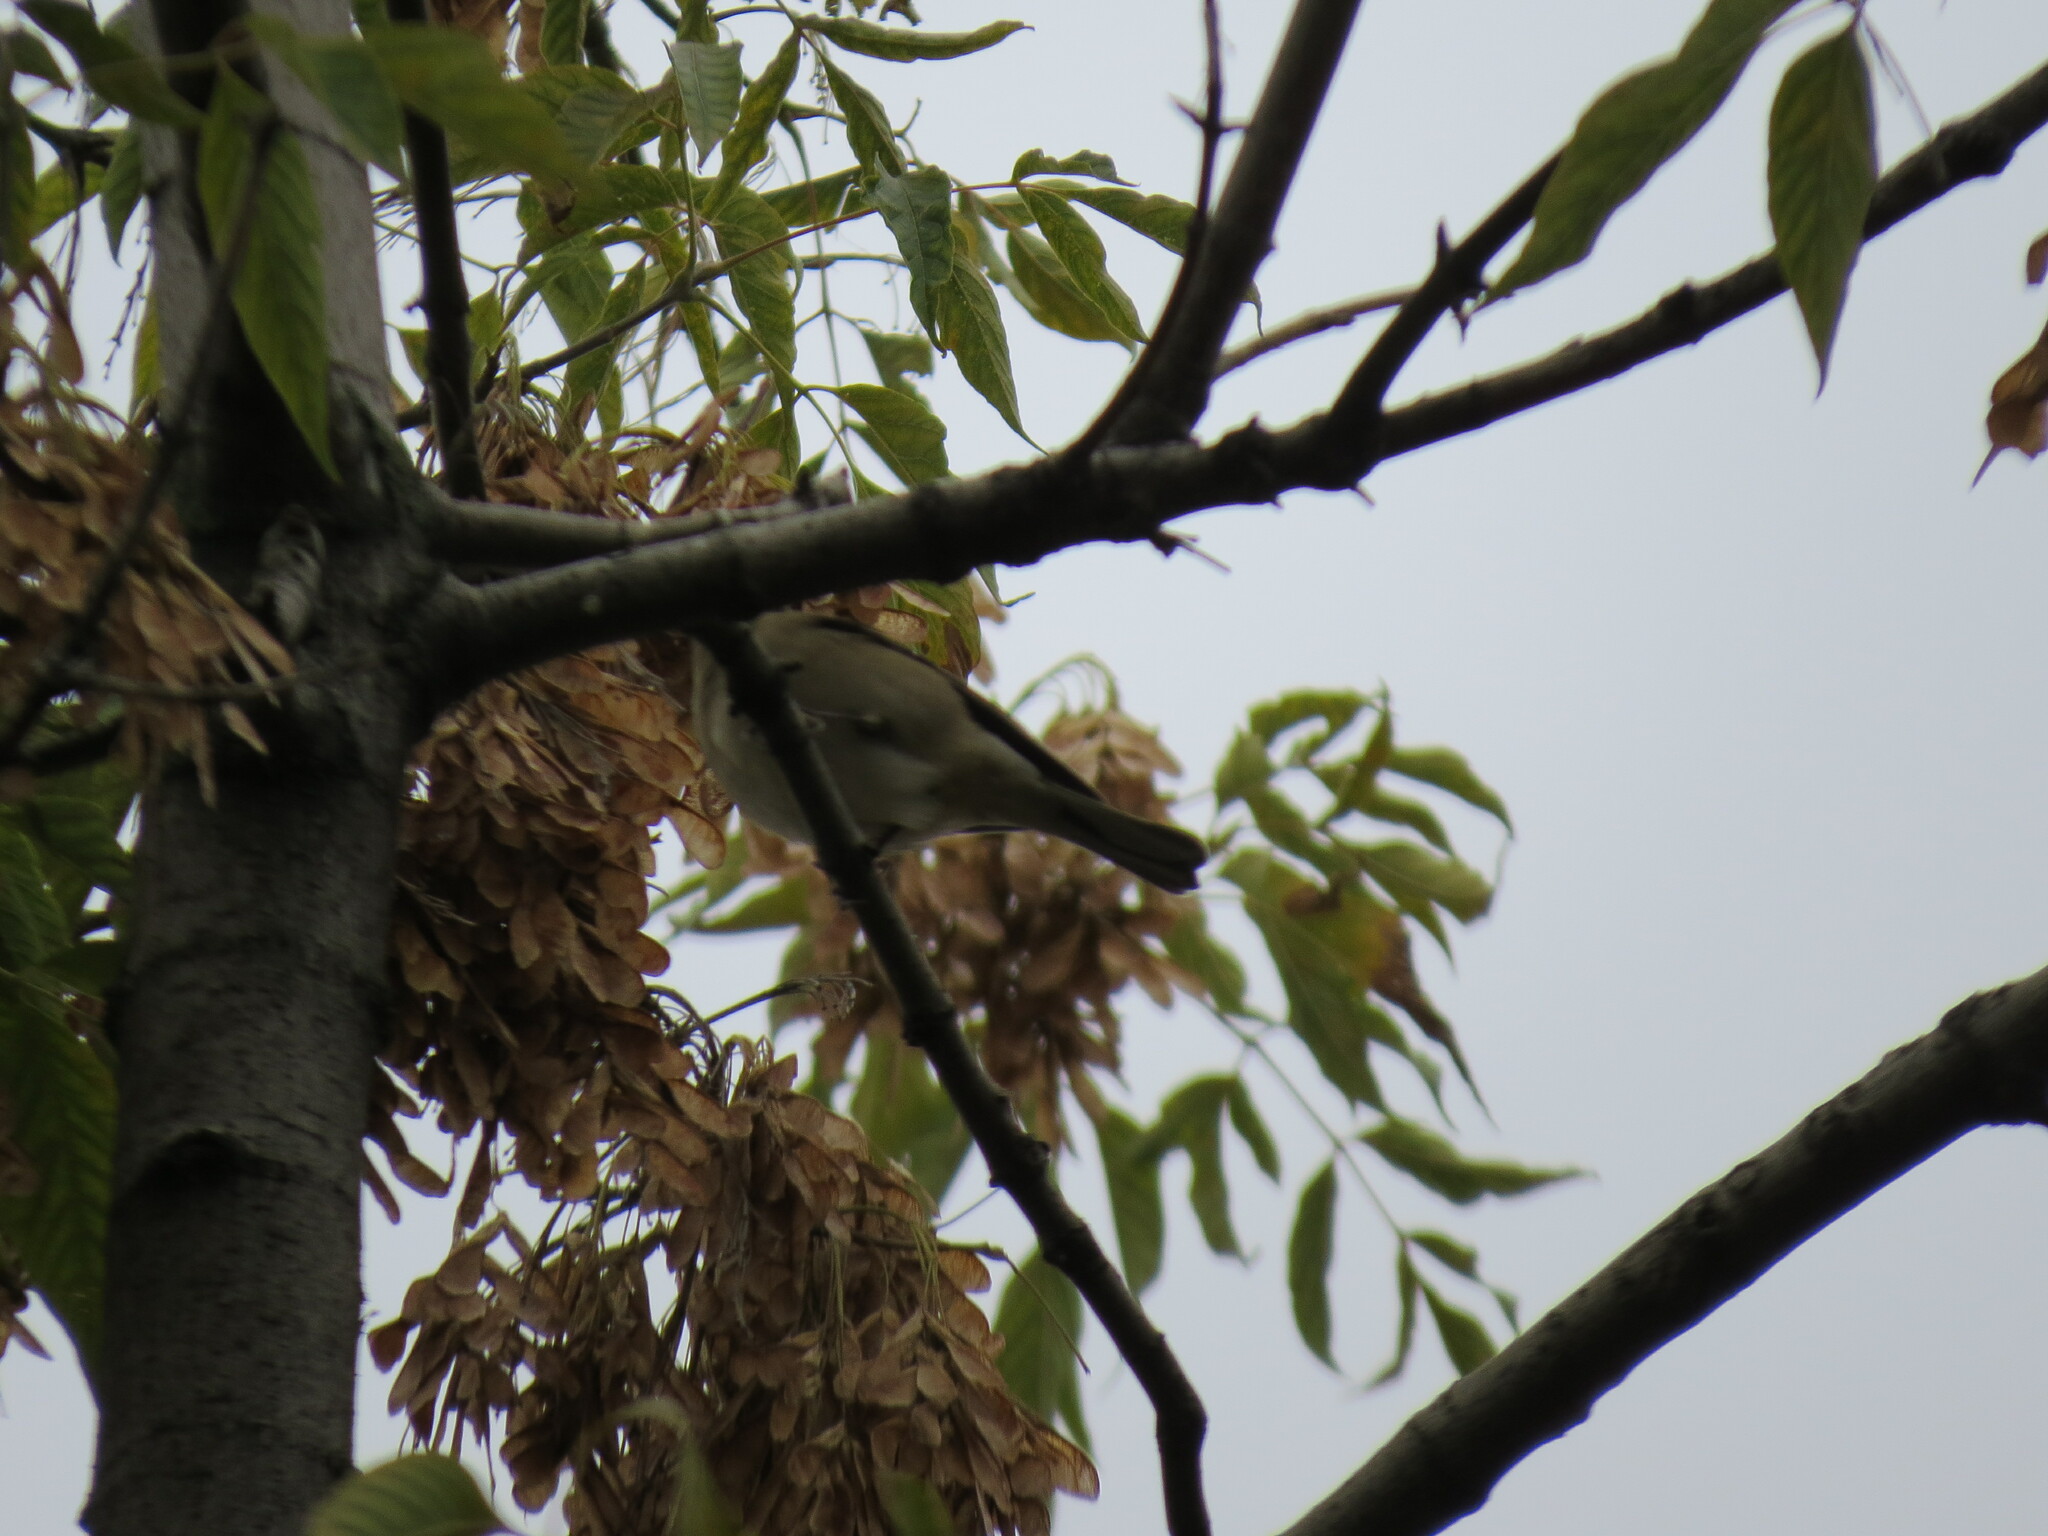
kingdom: Animalia
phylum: Chordata
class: Aves
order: Passeriformes
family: Fringillidae
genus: Fringilla
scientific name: Fringilla coelebs
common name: Common chaffinch
